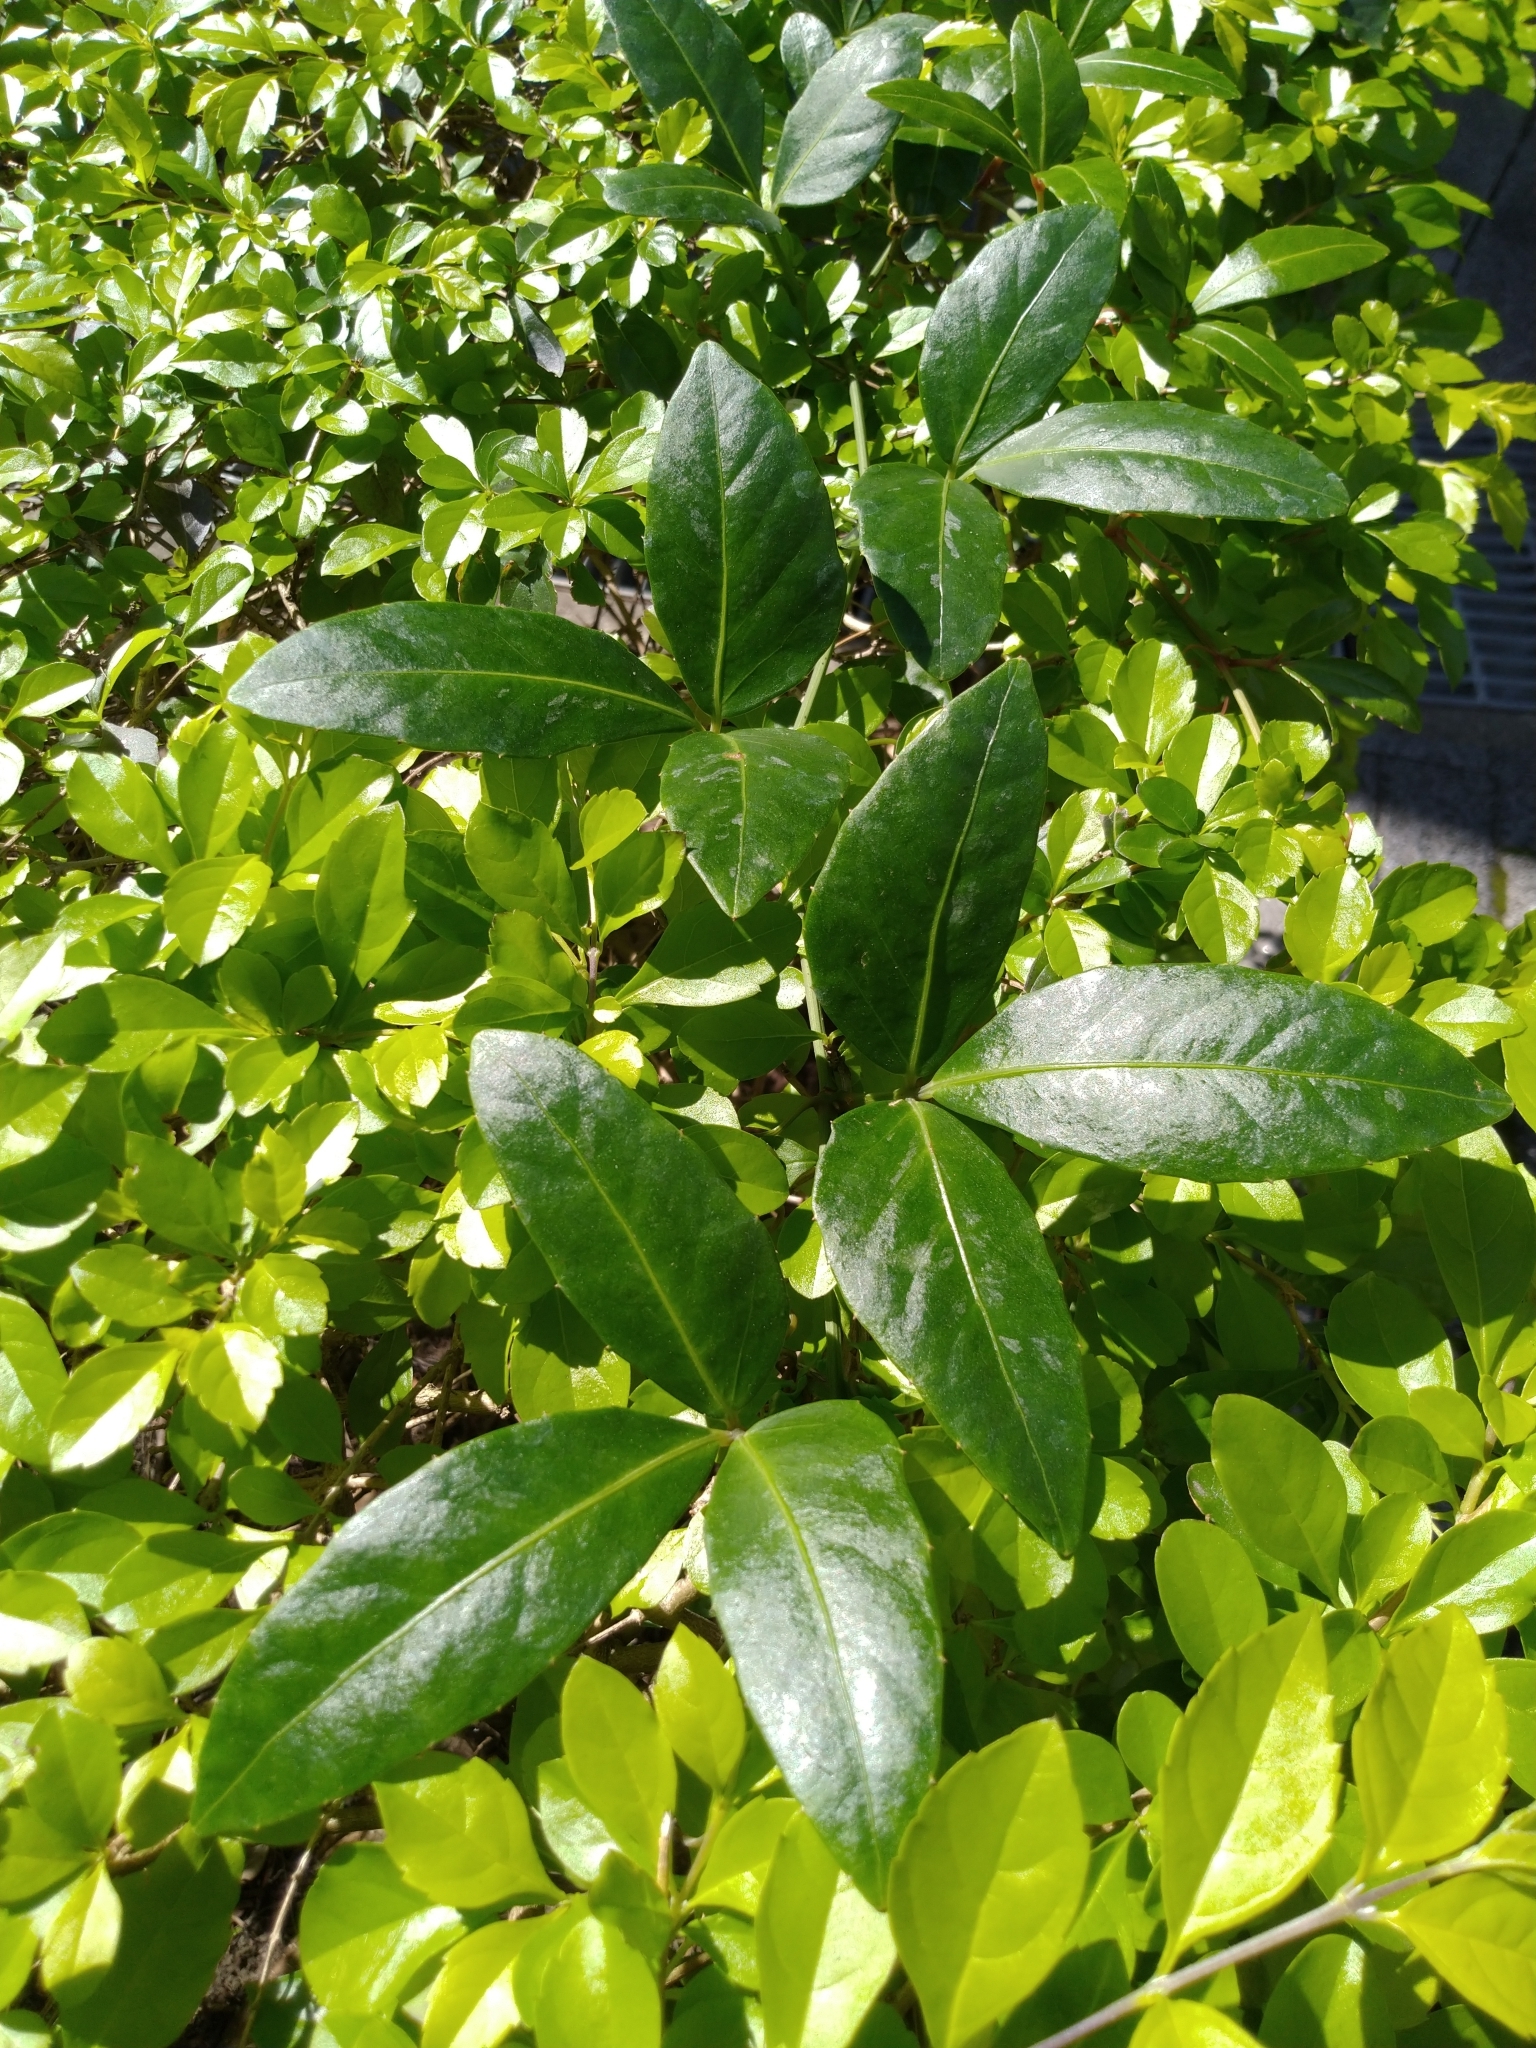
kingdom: Plantae
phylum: Tracheophyta
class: Magnoliopsida
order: Vitales
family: Vitaceae
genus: Tetrastigma
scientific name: Tetrastigma formosanum
